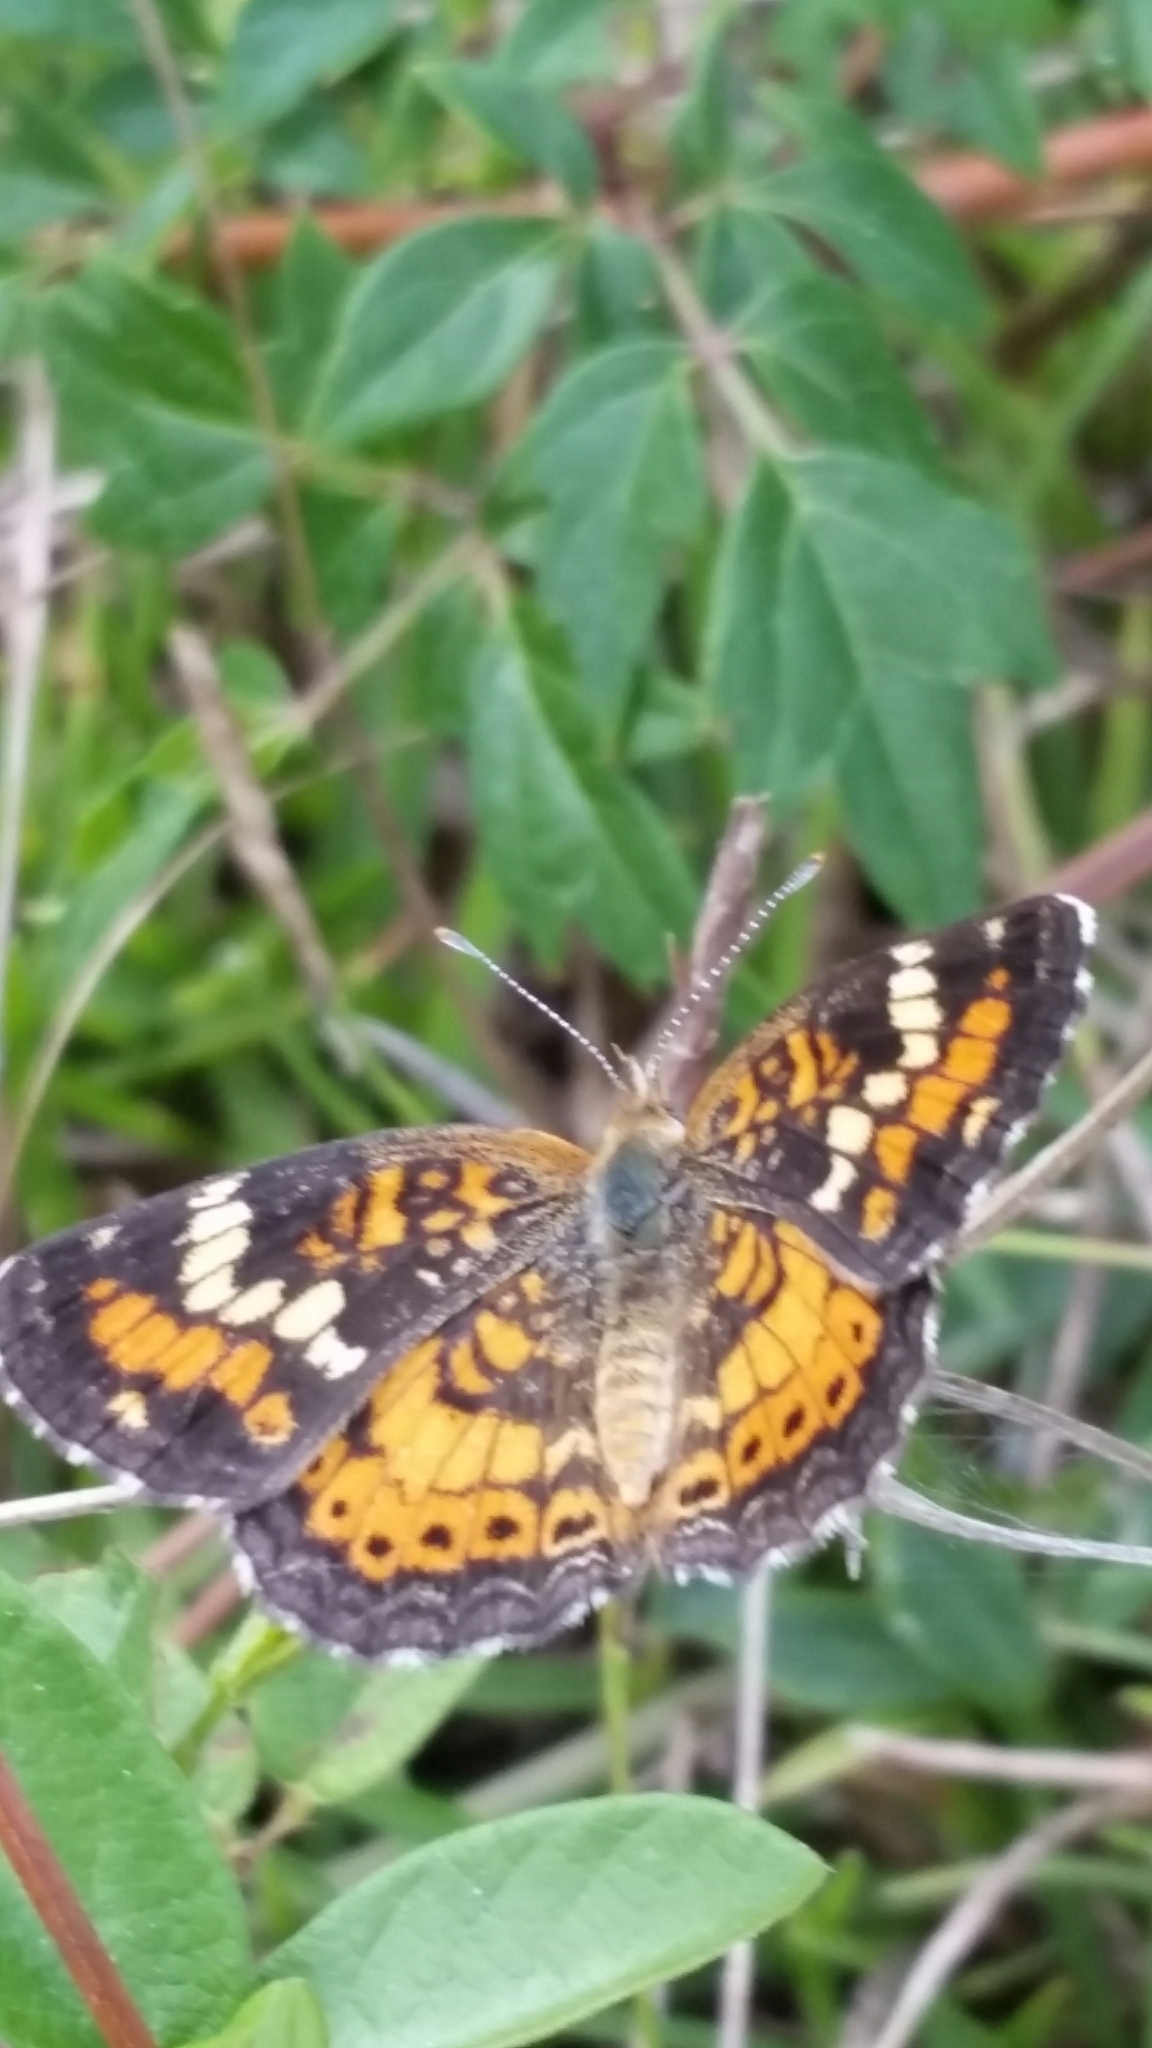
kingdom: Animalia
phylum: Arthropoda
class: Insecta
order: Lepidoptera
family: Nymphalidae
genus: Phyciodes
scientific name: Phyciodes phaon
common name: Phaon crescent
